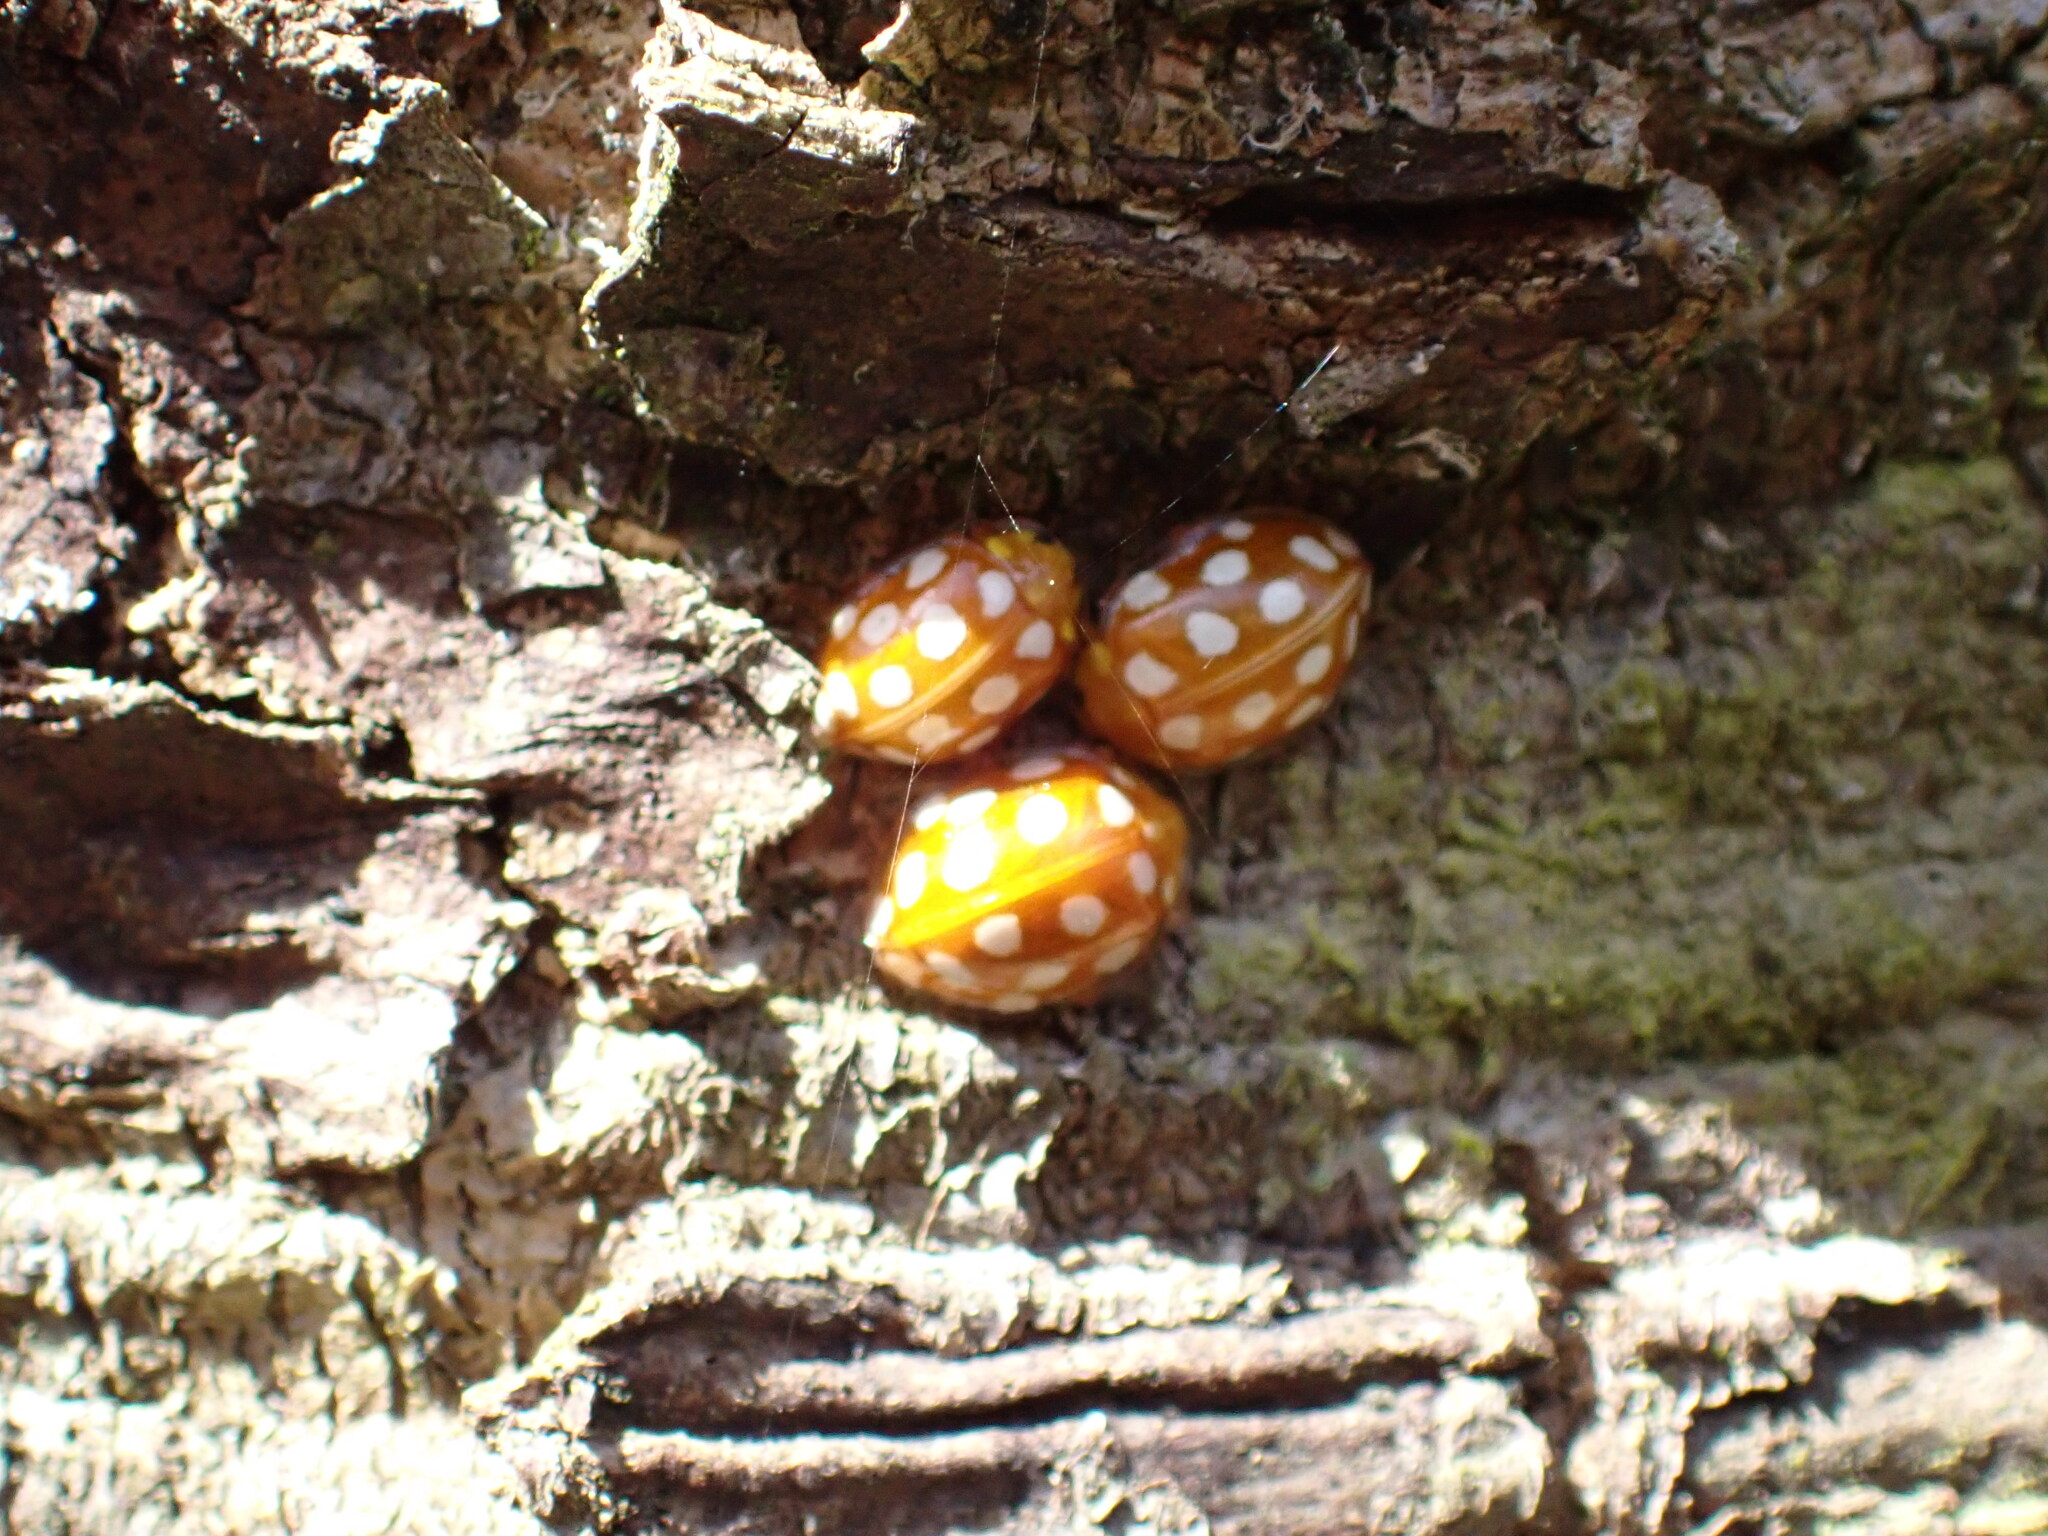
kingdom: Animalia
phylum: Arthropoda
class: Insecta
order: Coleoptera
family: Coccinellidae
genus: Halyzia
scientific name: Halyzia sedecimguttata
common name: Orange ladybird
